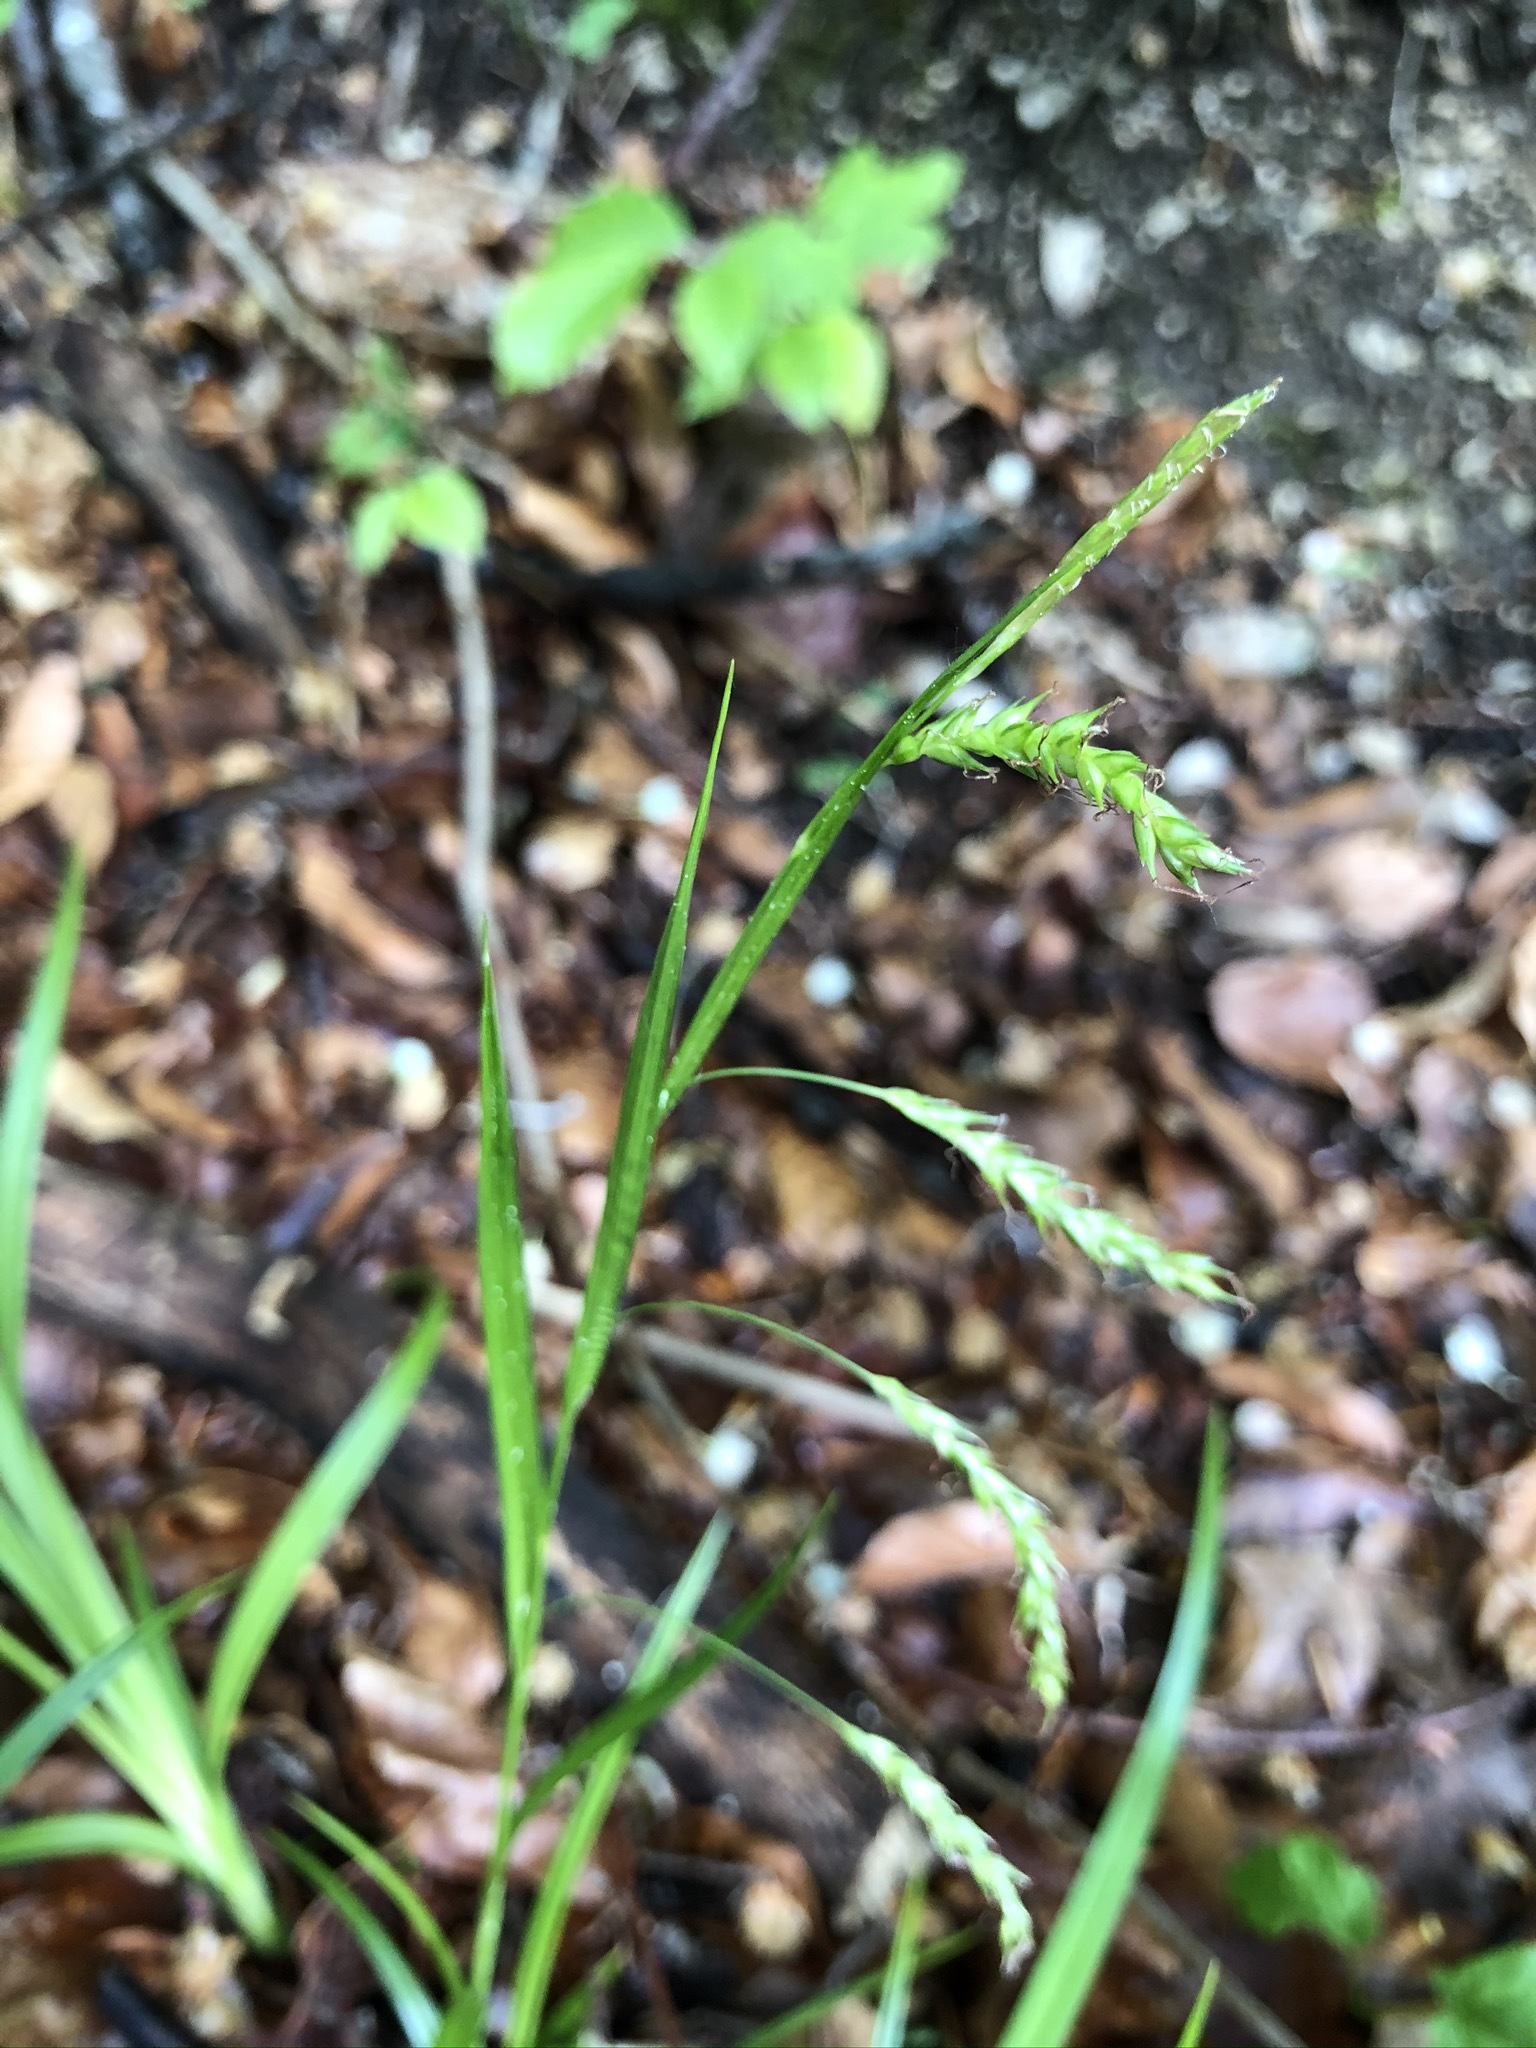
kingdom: Plantae
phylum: Tracheophyta
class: Liliopsida
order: Poales
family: Cyperaceae
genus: Carex
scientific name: Carex sylvatica
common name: Wood-sedge
